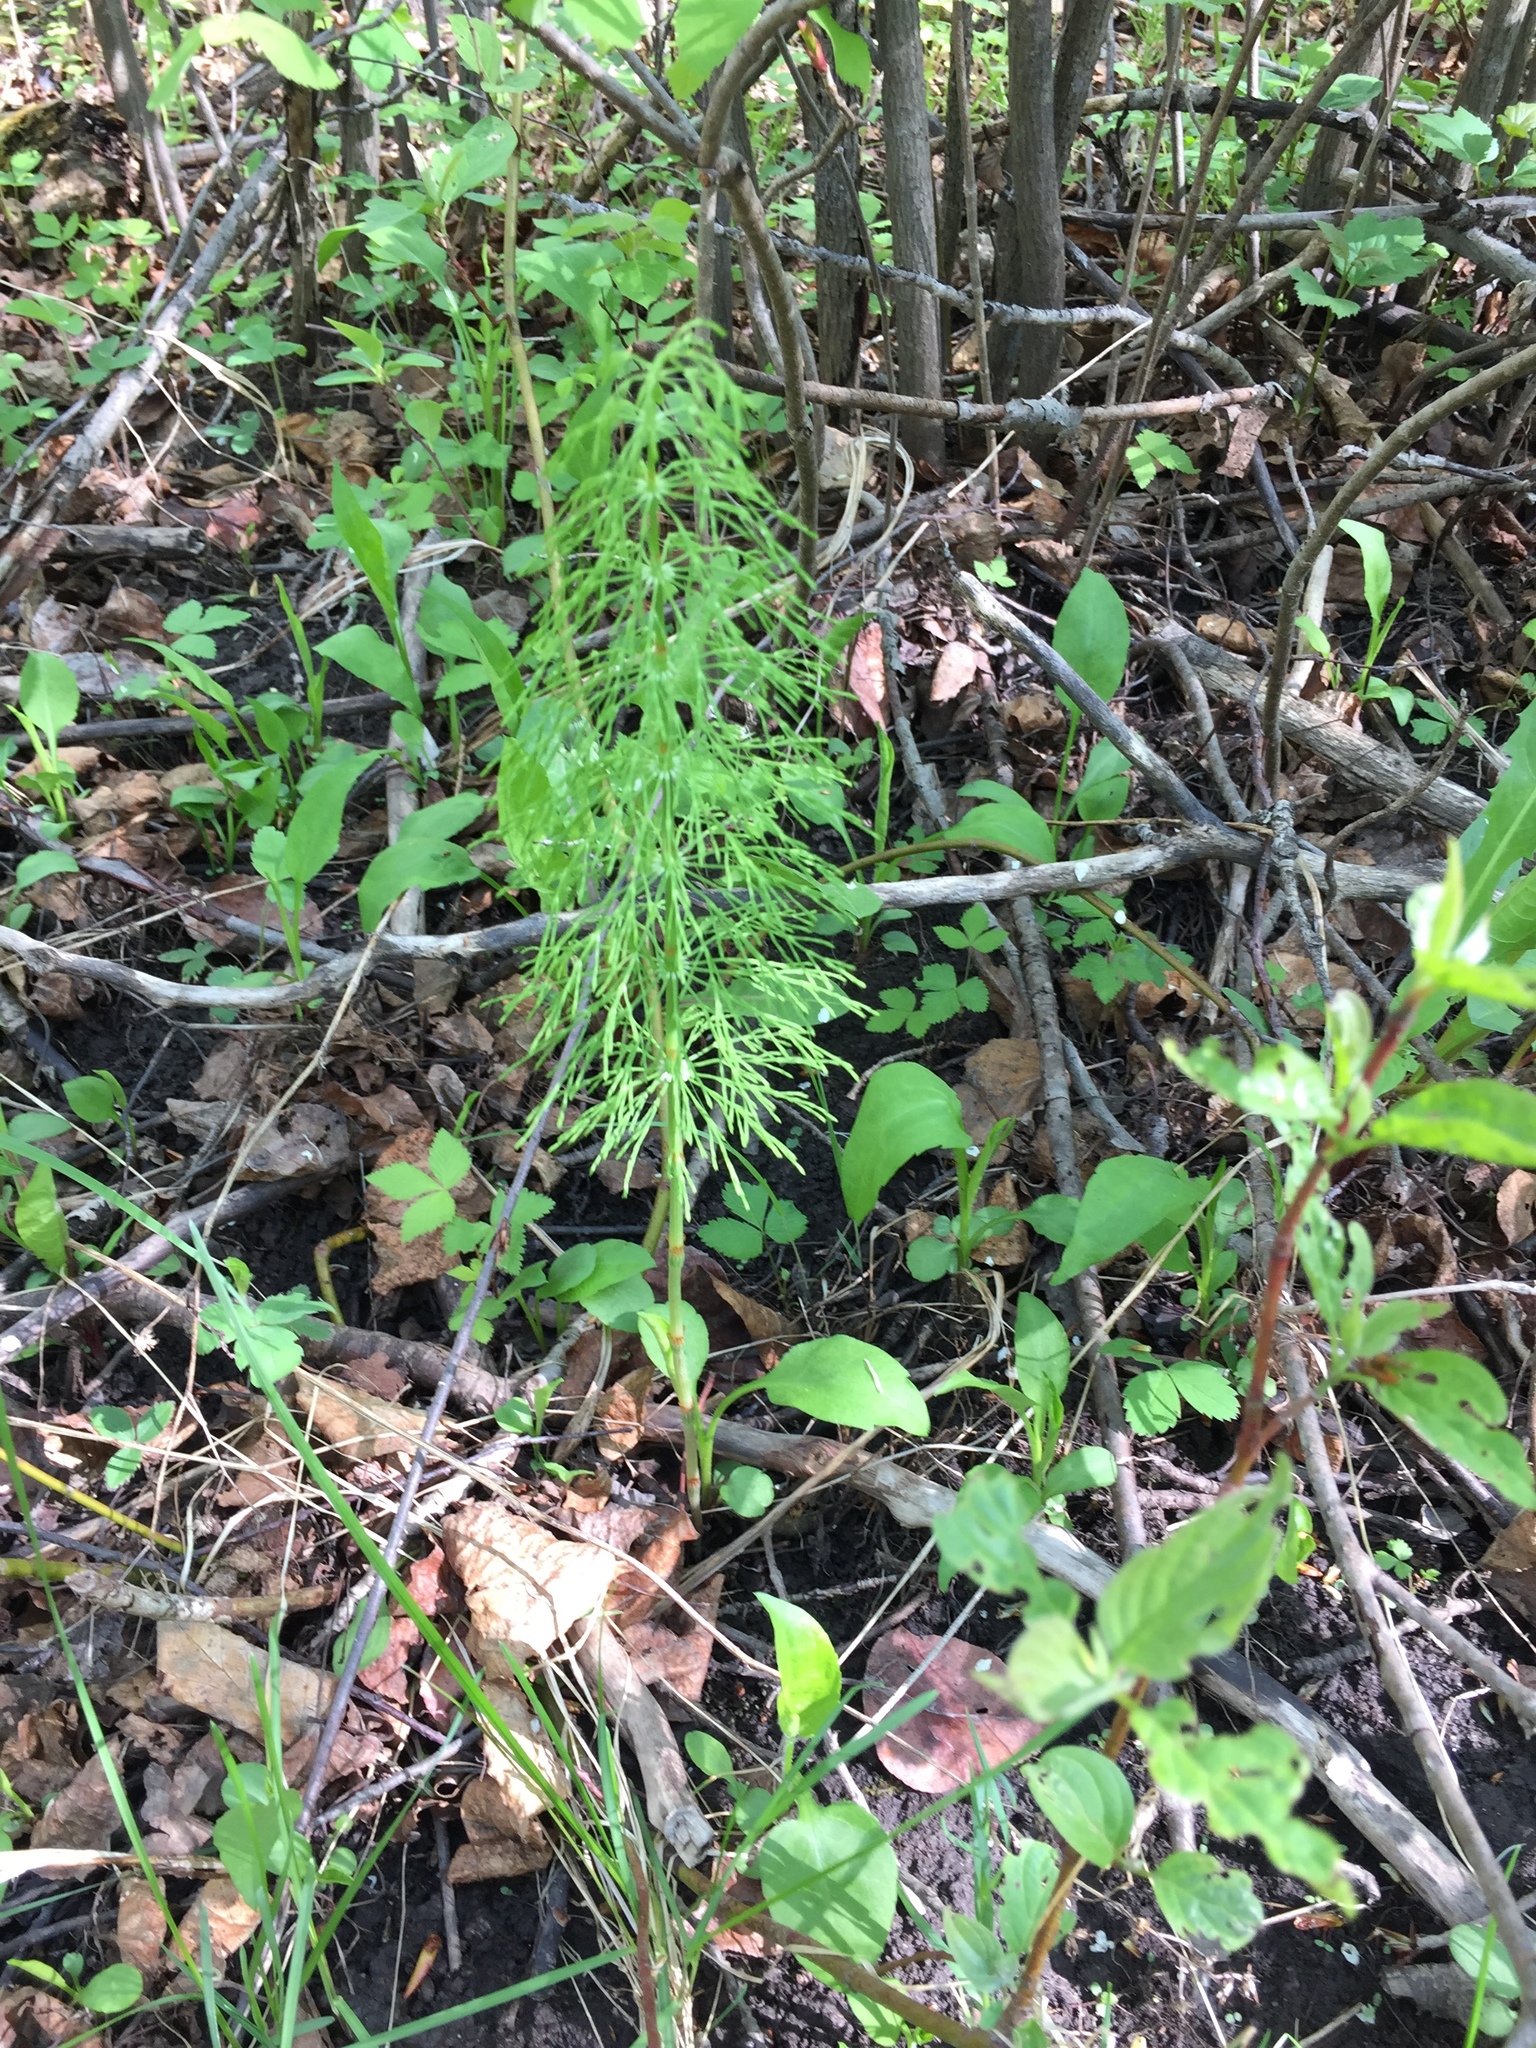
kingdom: Plantae
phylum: Tracheophyta
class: Polypodiopsida
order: Equisetales
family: Equisetaceae
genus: Equisetum
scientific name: Equisetum sylvaticum
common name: Wood horsetail
